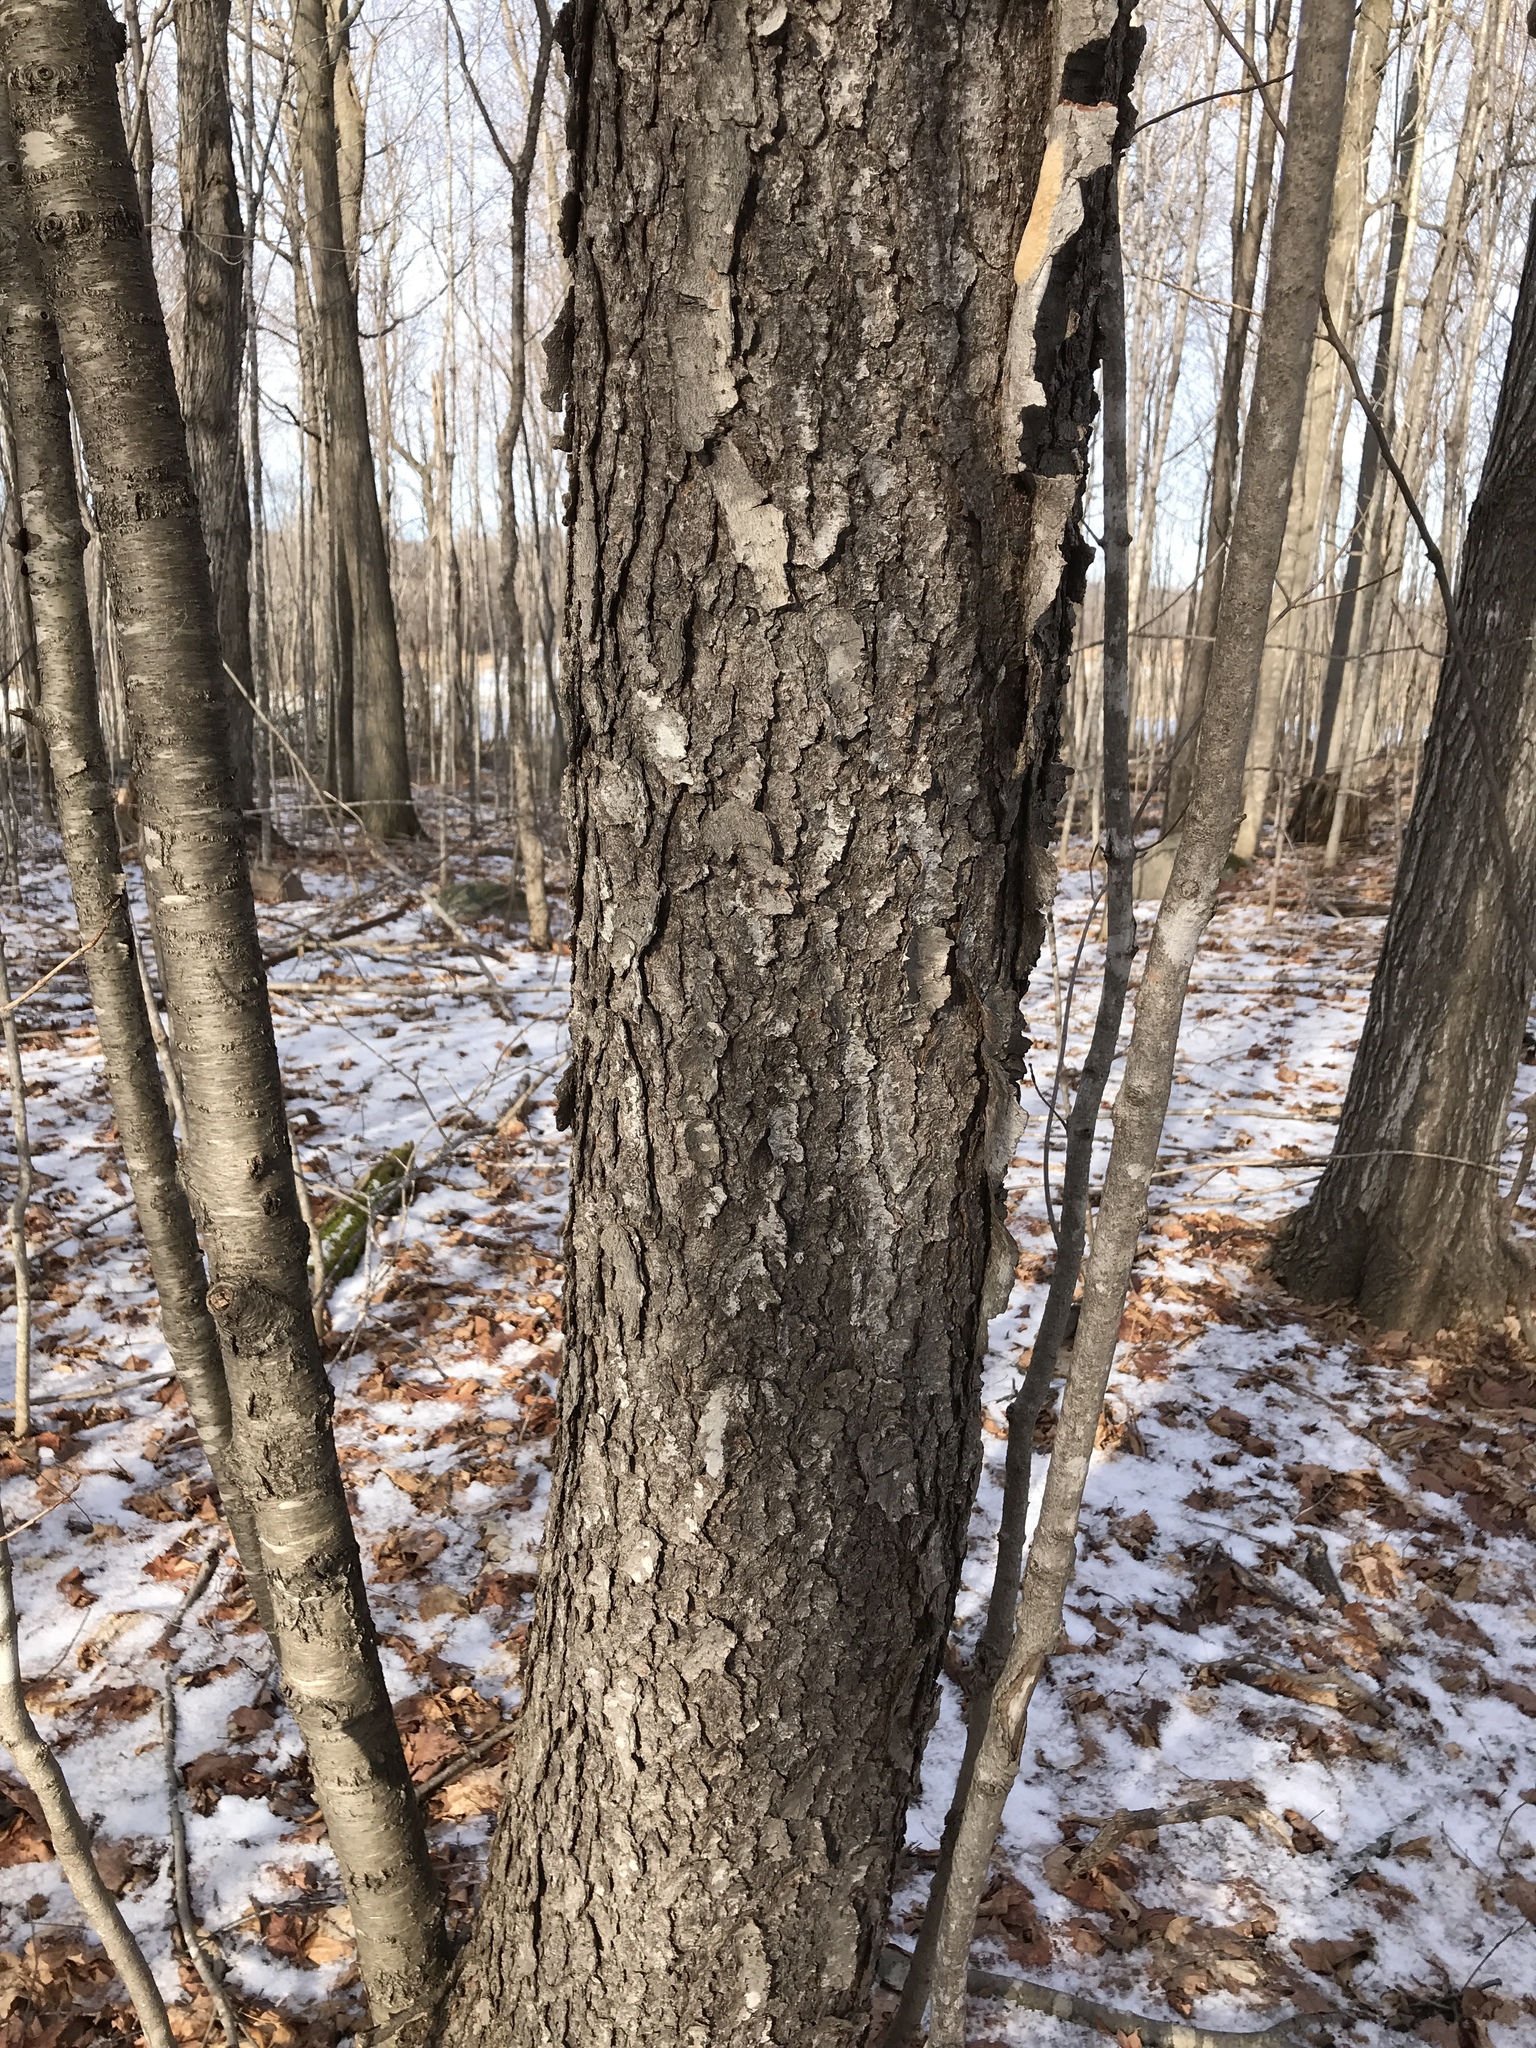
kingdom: Plantae
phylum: Tracheophyta
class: Magnoliopsida
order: Rosales
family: Rosaceae
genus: Prunus
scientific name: Prunus serotina
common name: Black cherry
